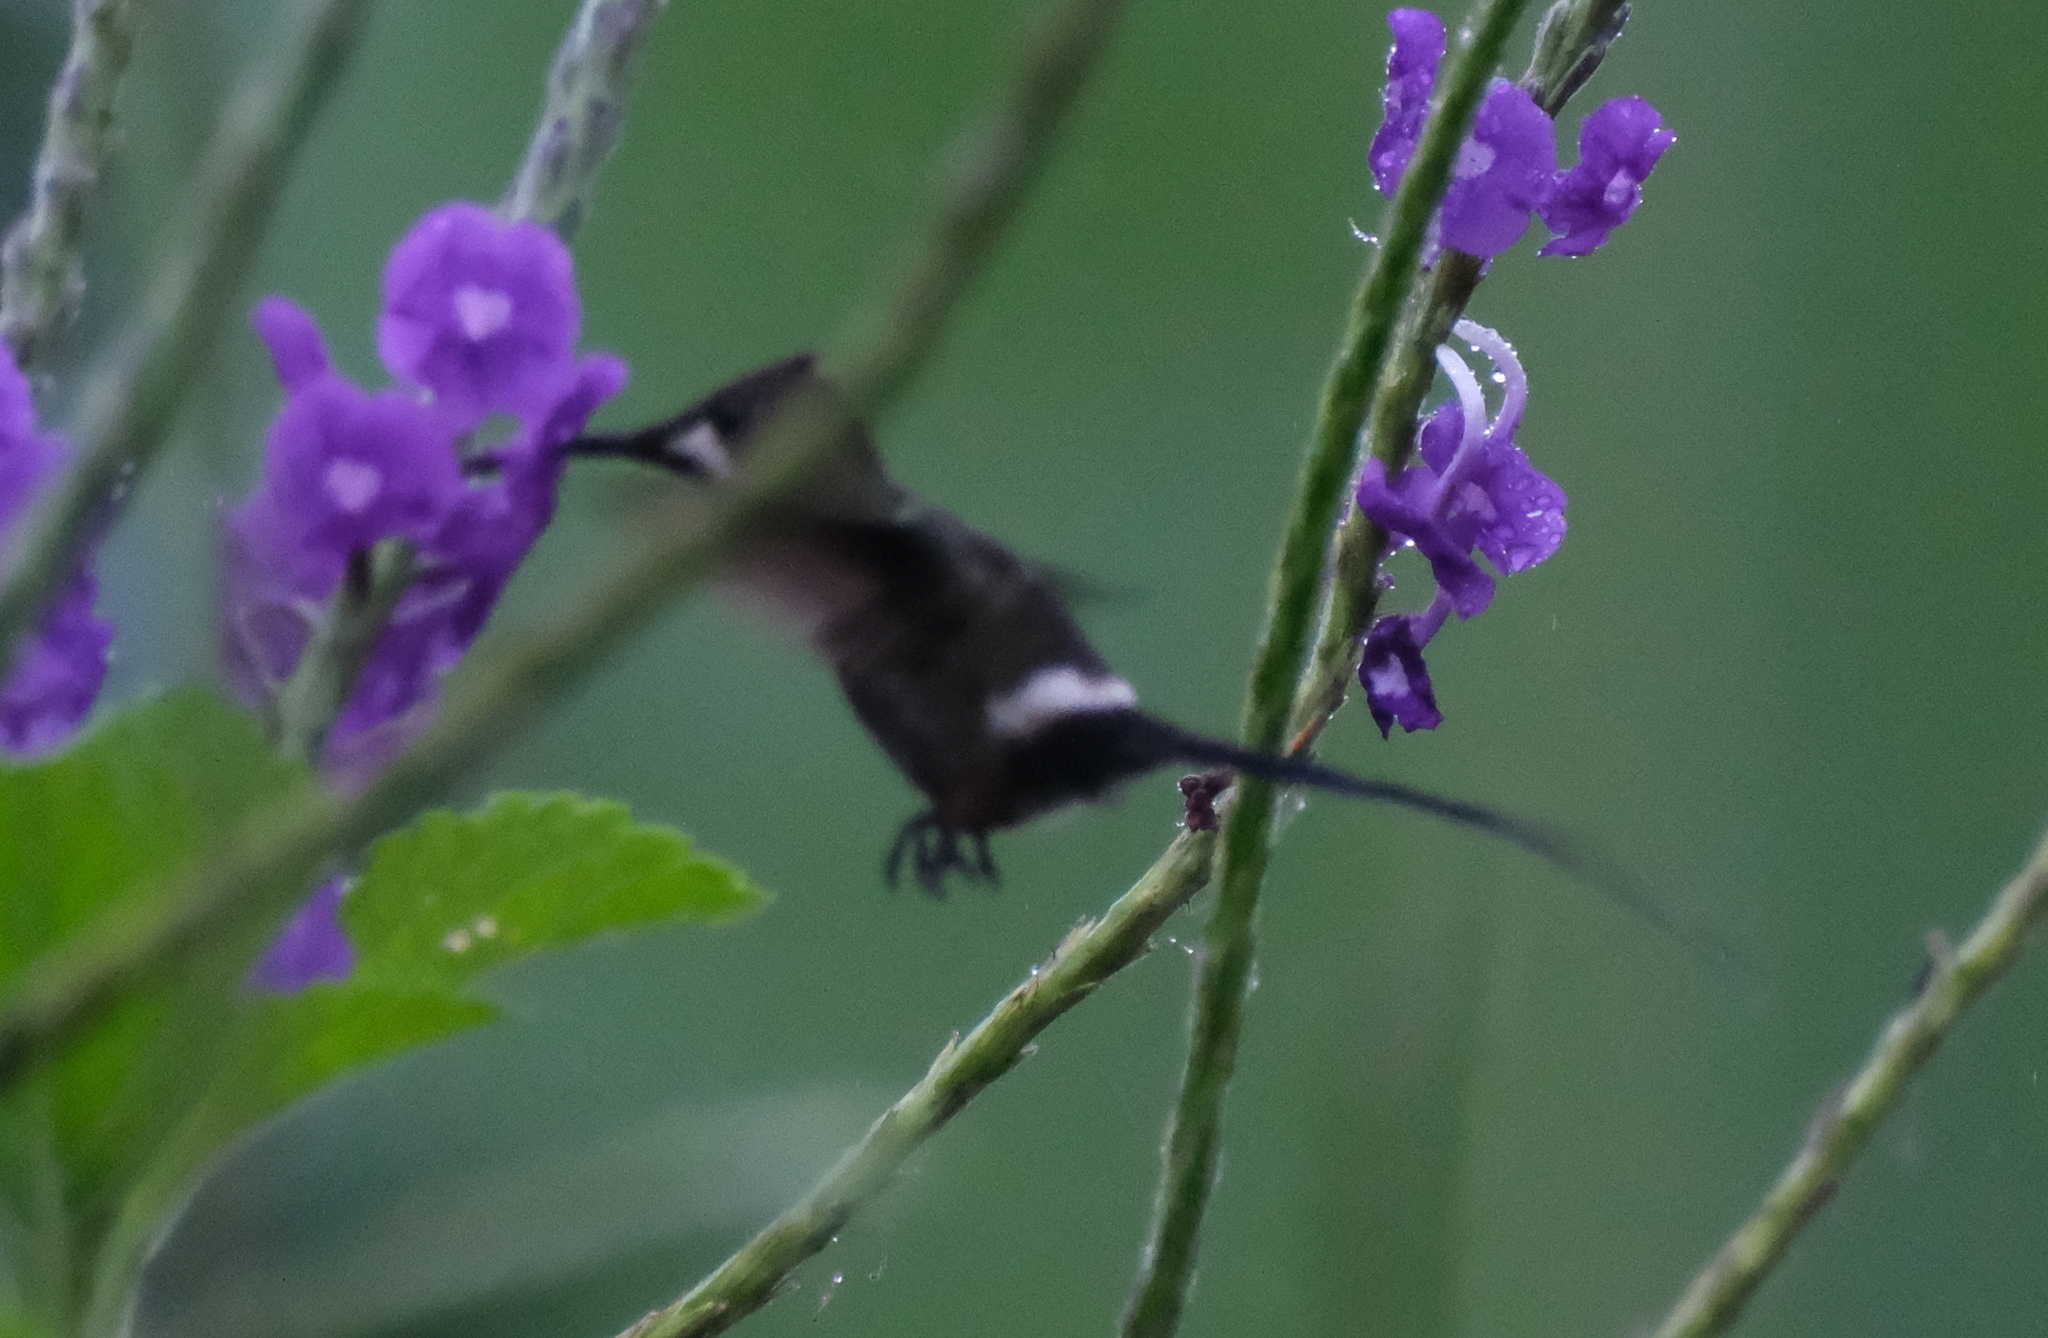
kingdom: Animalia
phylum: Chordata
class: Aves
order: Apodiformes
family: Trochilidae
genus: Discosura
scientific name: Discosura popelairii
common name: Wire-crested thorntail
